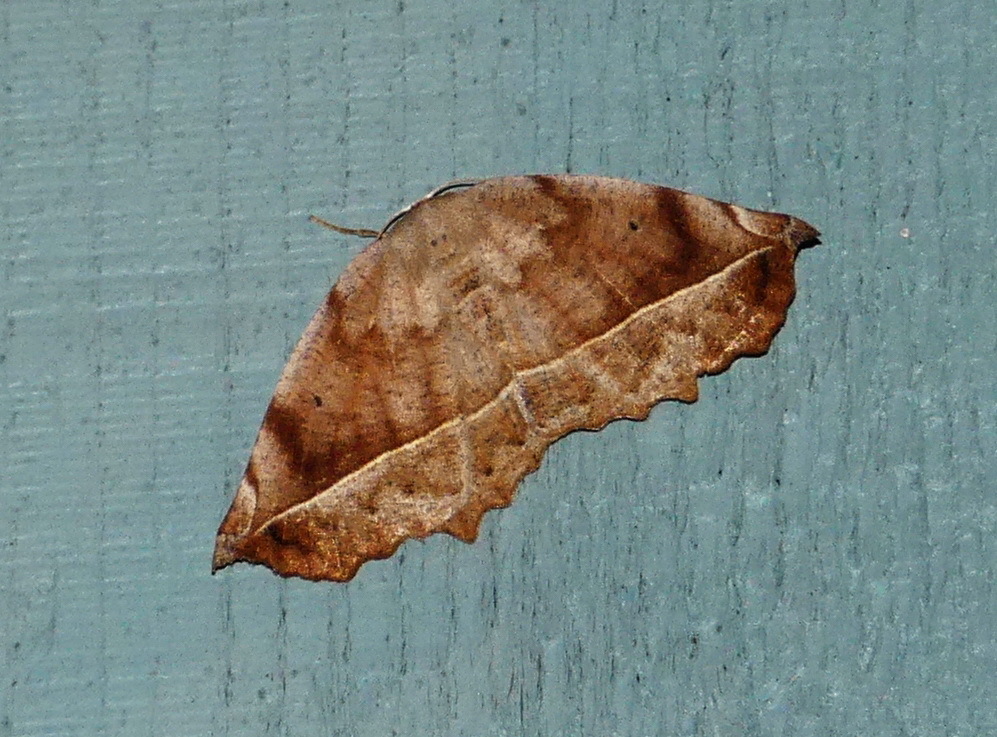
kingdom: Animalia
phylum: Arthropoda
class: Insecta
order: Lepidoptera
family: Geometridae
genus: Eutrapela
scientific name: Eutrapela clemataria
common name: Curved-toothed geometer
